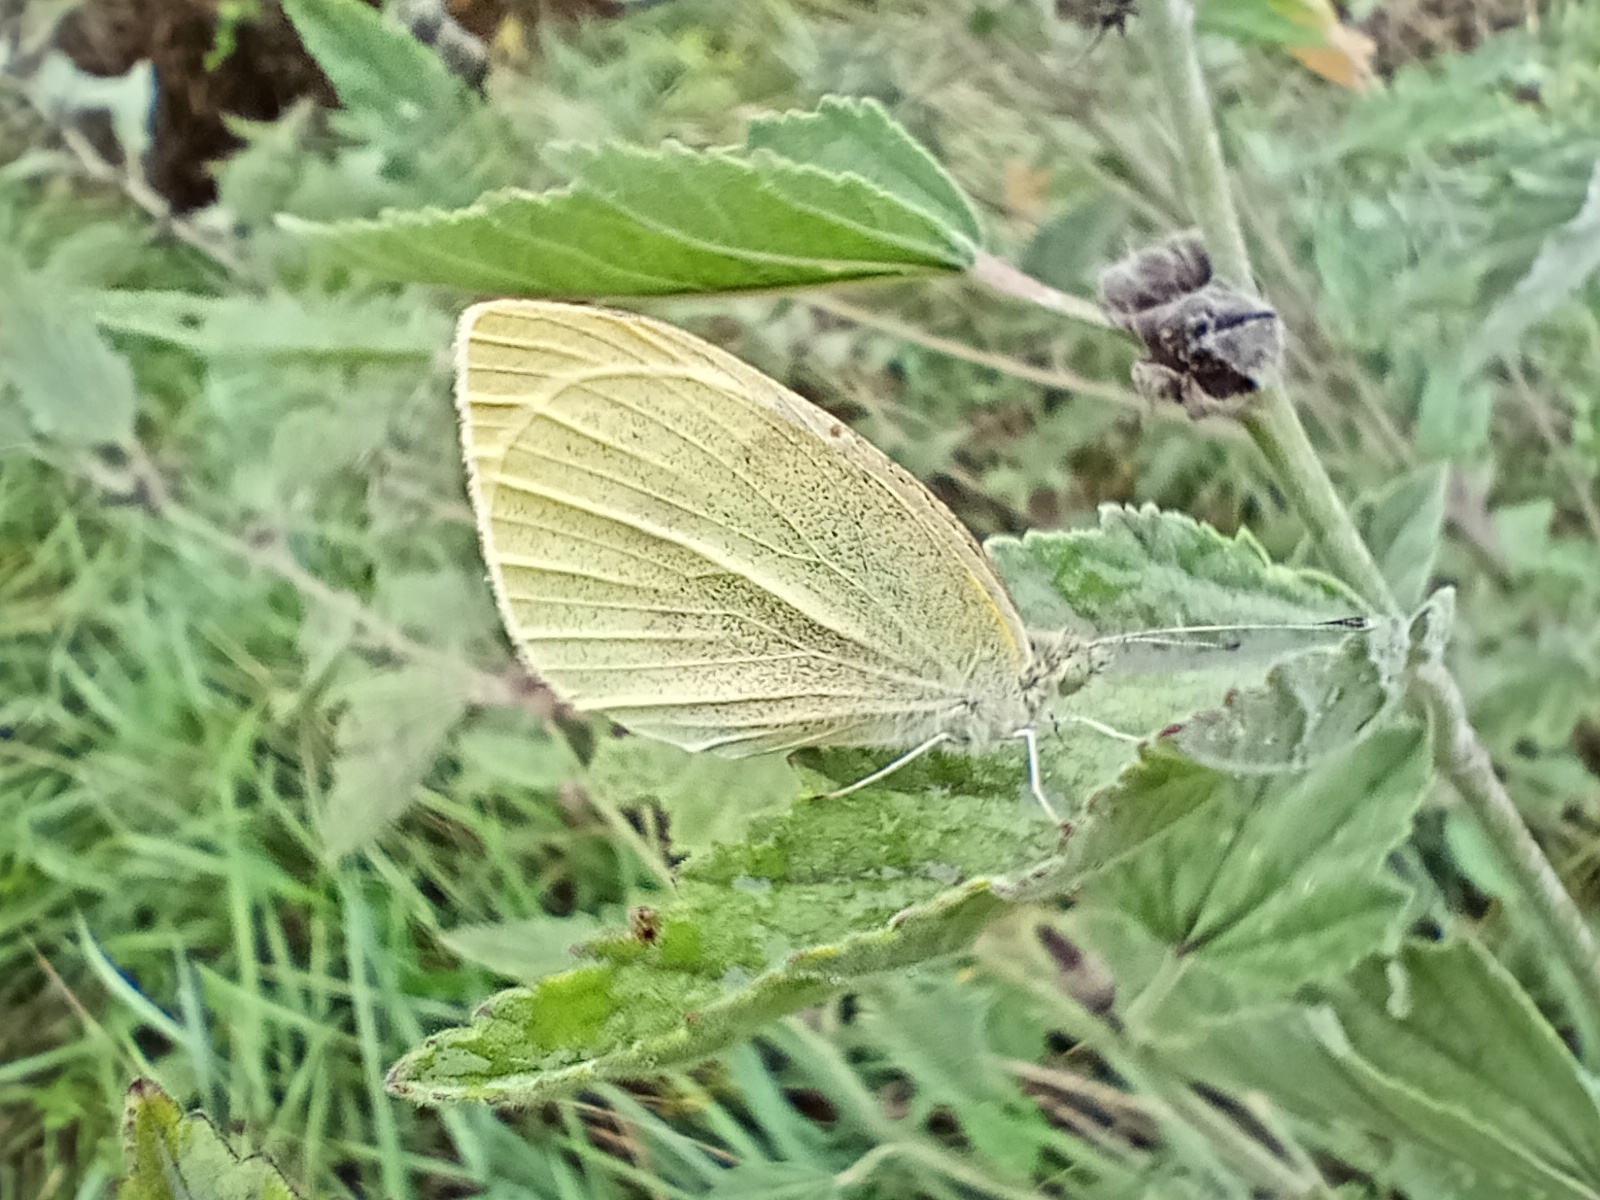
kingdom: Animalia
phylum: Arthropoda
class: Insecta
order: Lepidoptera
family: Pieridae
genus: Pieris
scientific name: Pieris rapae
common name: Small white
